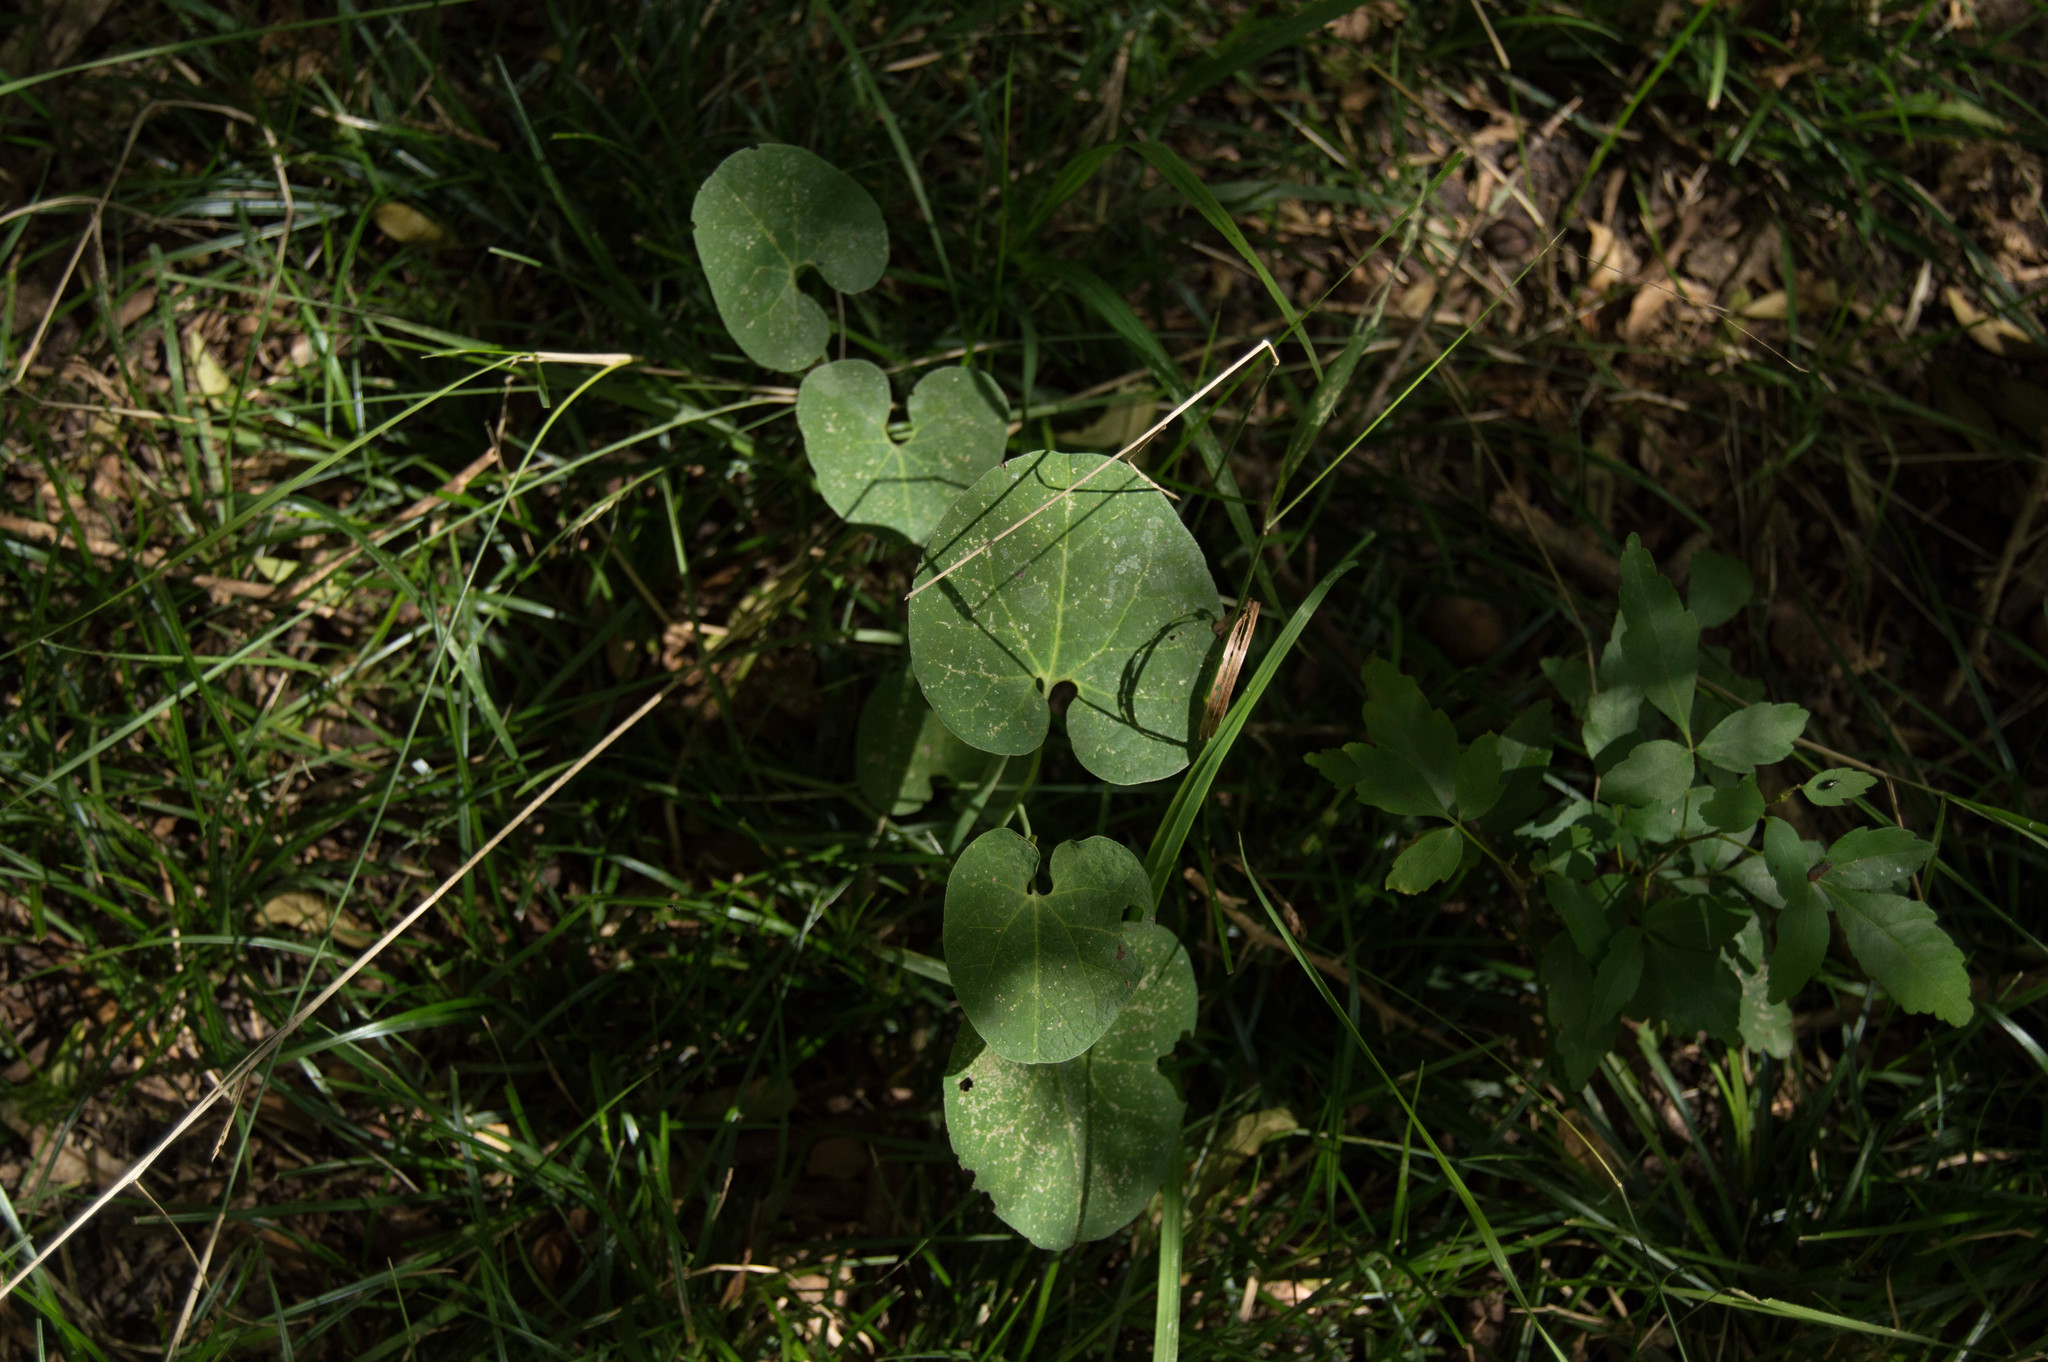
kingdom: Plantae
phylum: Tracheophyta
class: Magnoliopsida
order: Piperales
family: Aristolochiaceae
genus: Aristolochia
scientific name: Aristolochia fimbriata
